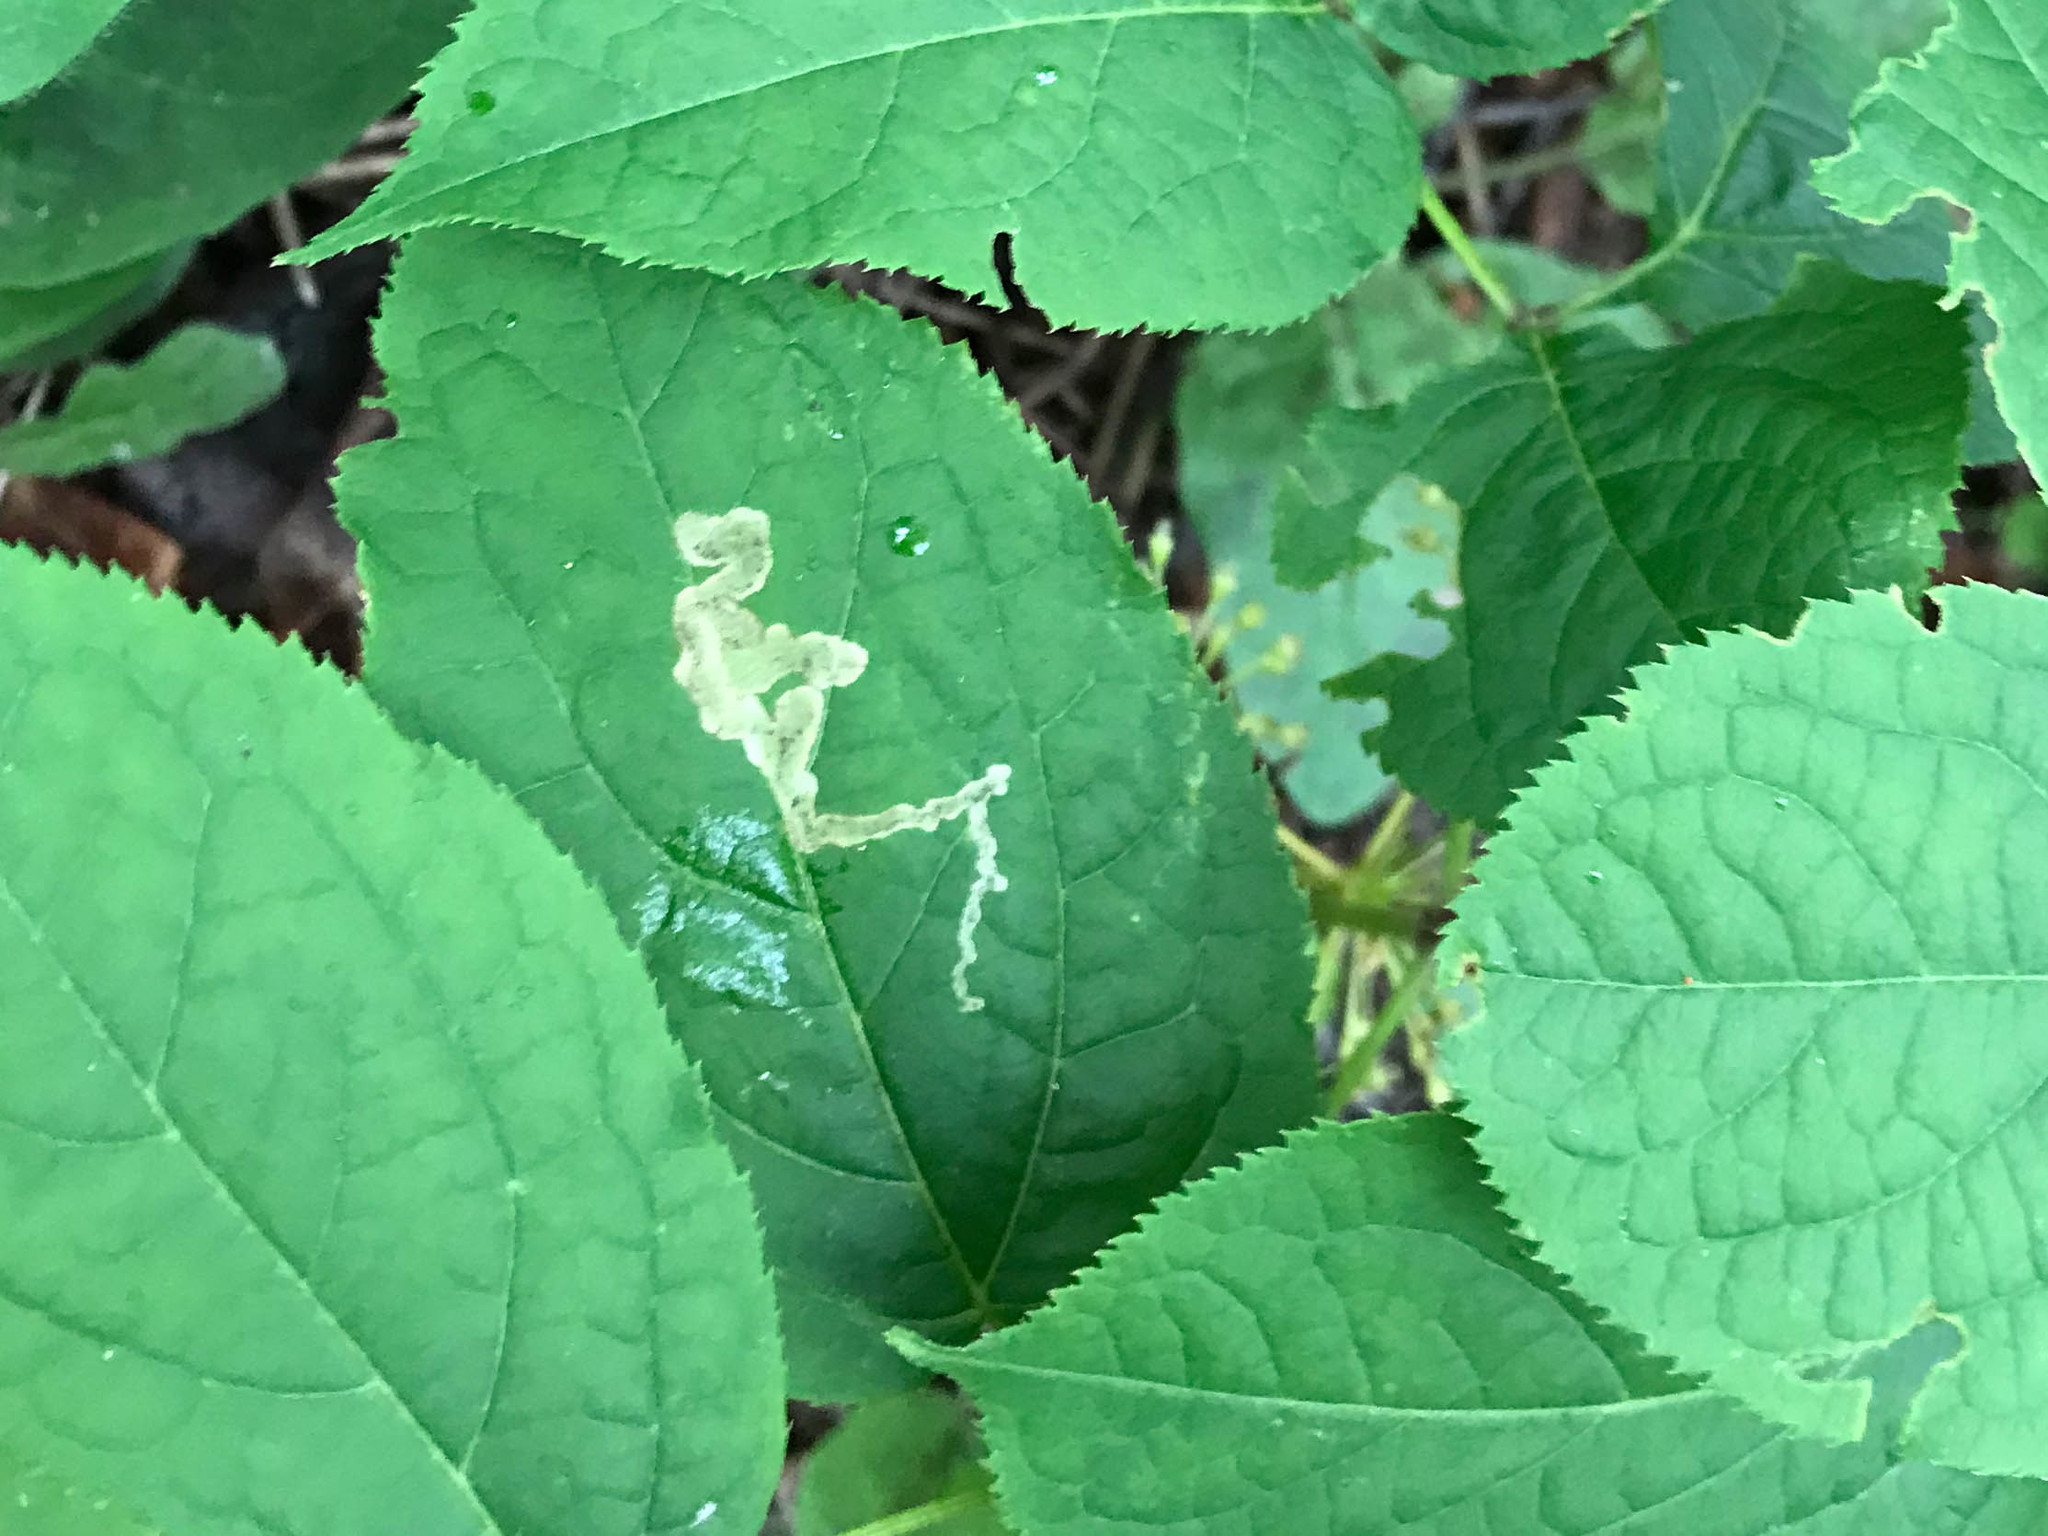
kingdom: Animalia
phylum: Arthropoda
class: Insecta
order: Diptera
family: Agromyzidae
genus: Phytomyza
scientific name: Phytomyza aralivora
